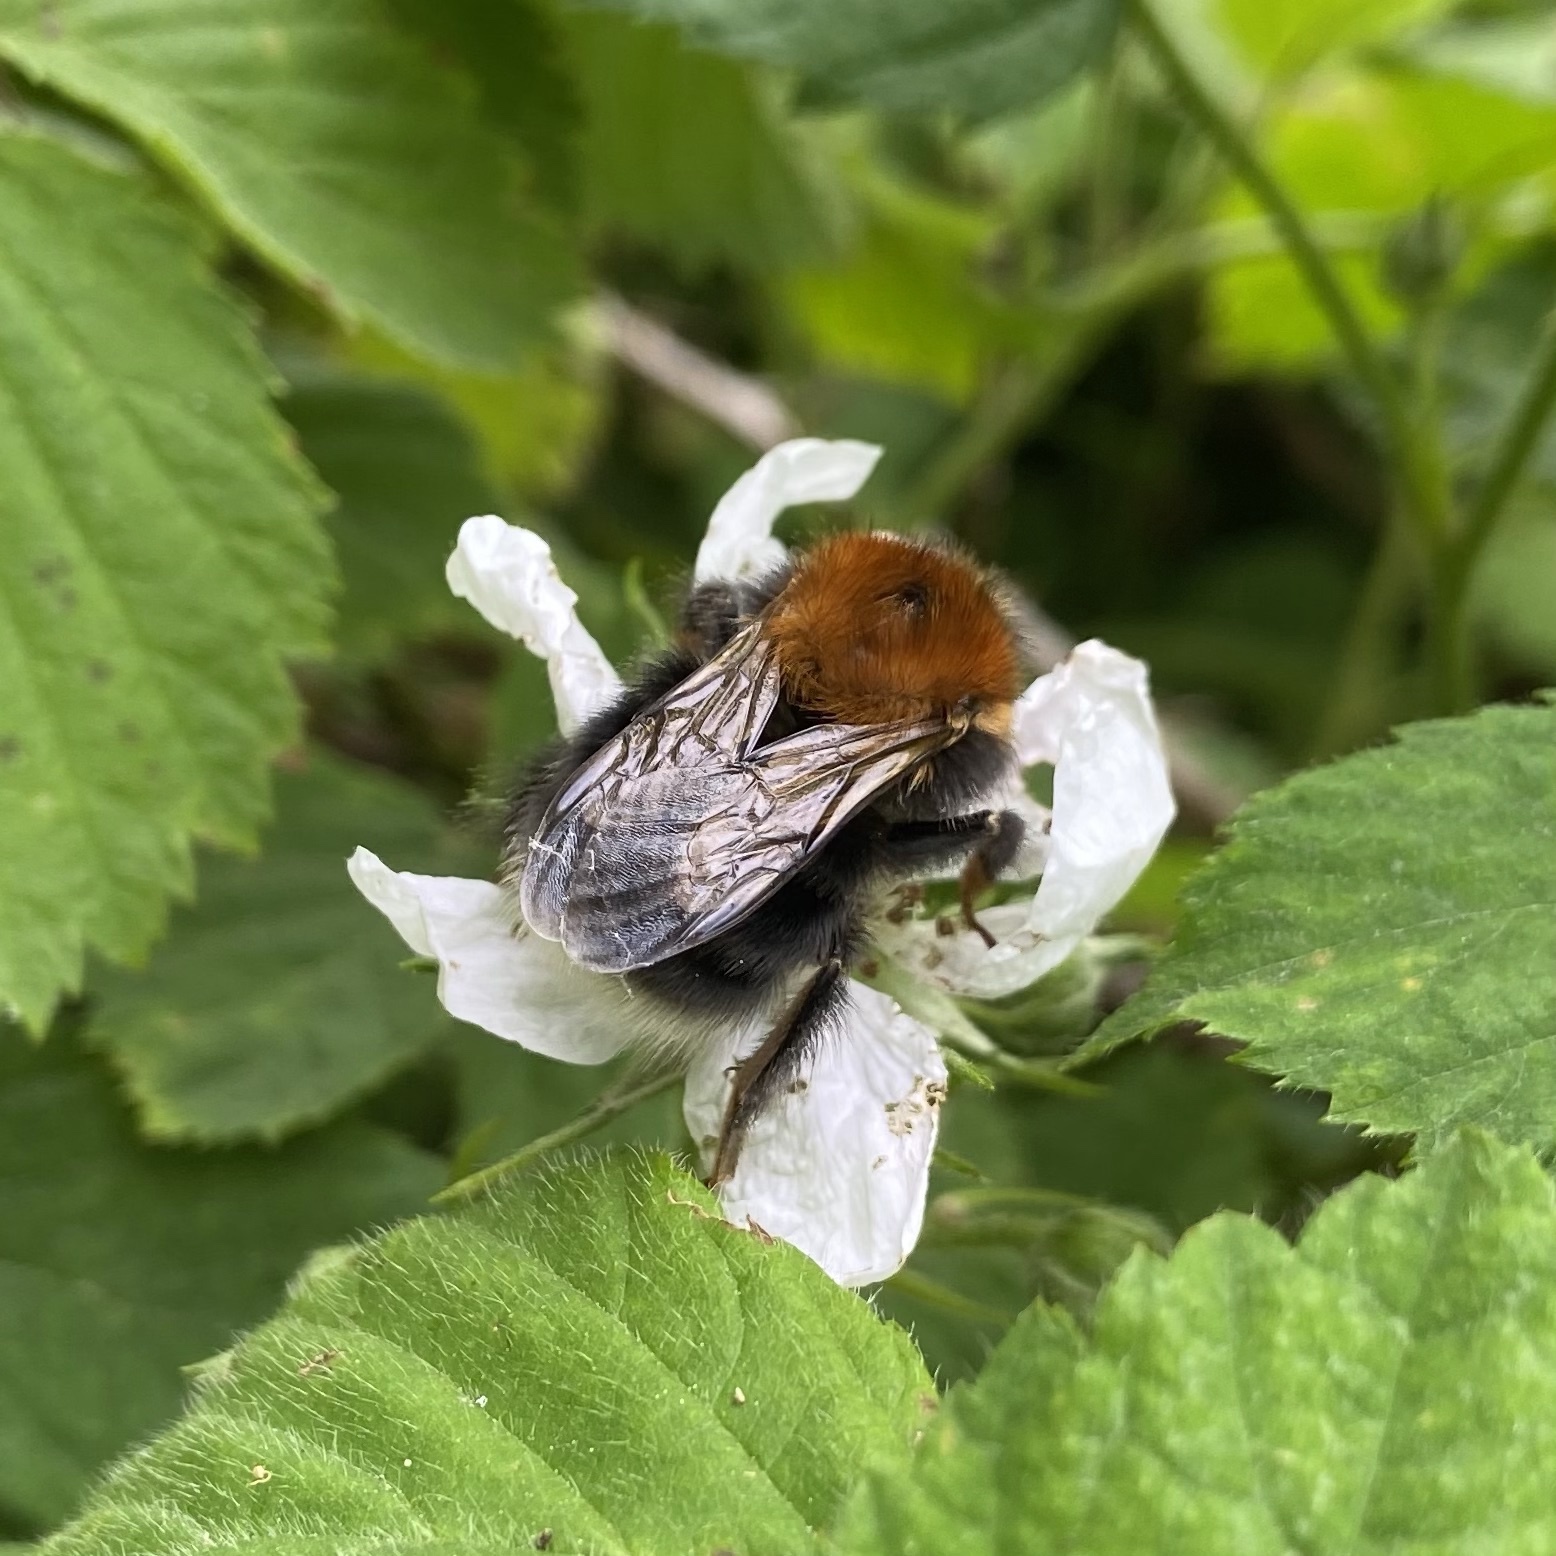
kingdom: Animalia
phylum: Arthropoda
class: Insecta
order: Hymenoptera
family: Apidae
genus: Bombus
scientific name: Bombus hypnorum
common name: New garden bumblebee
